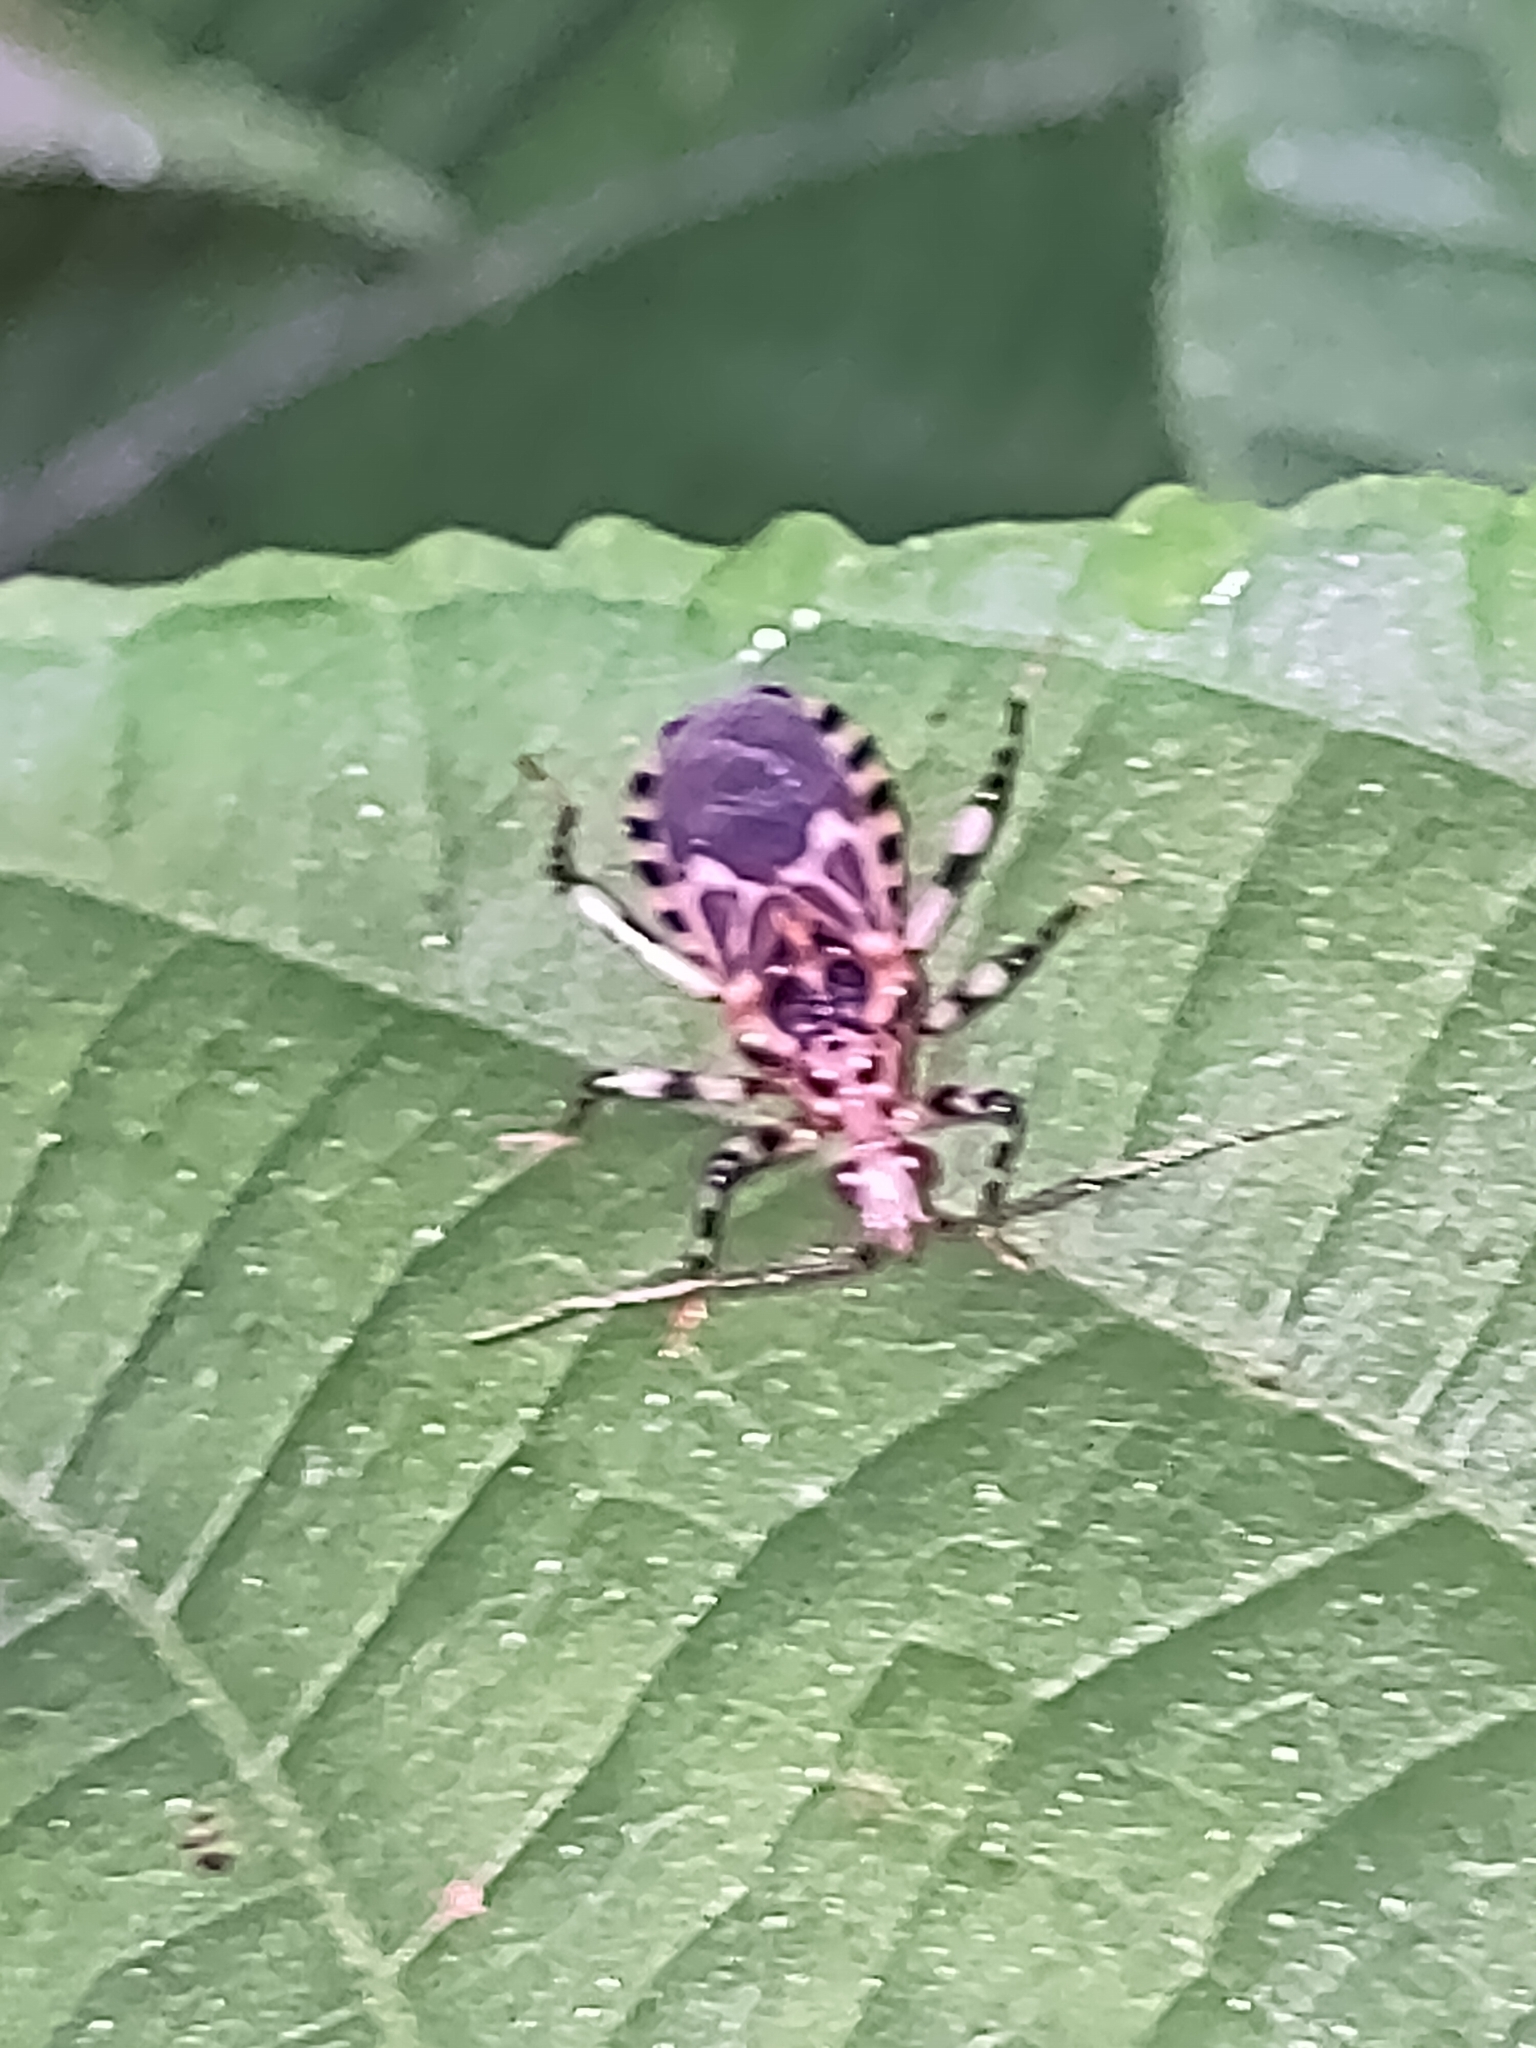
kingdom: Animalia
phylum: Arthropoda
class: Insecta
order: Hemiptera
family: Reduviidae
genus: Pothea
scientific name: Pothea jaguaris
